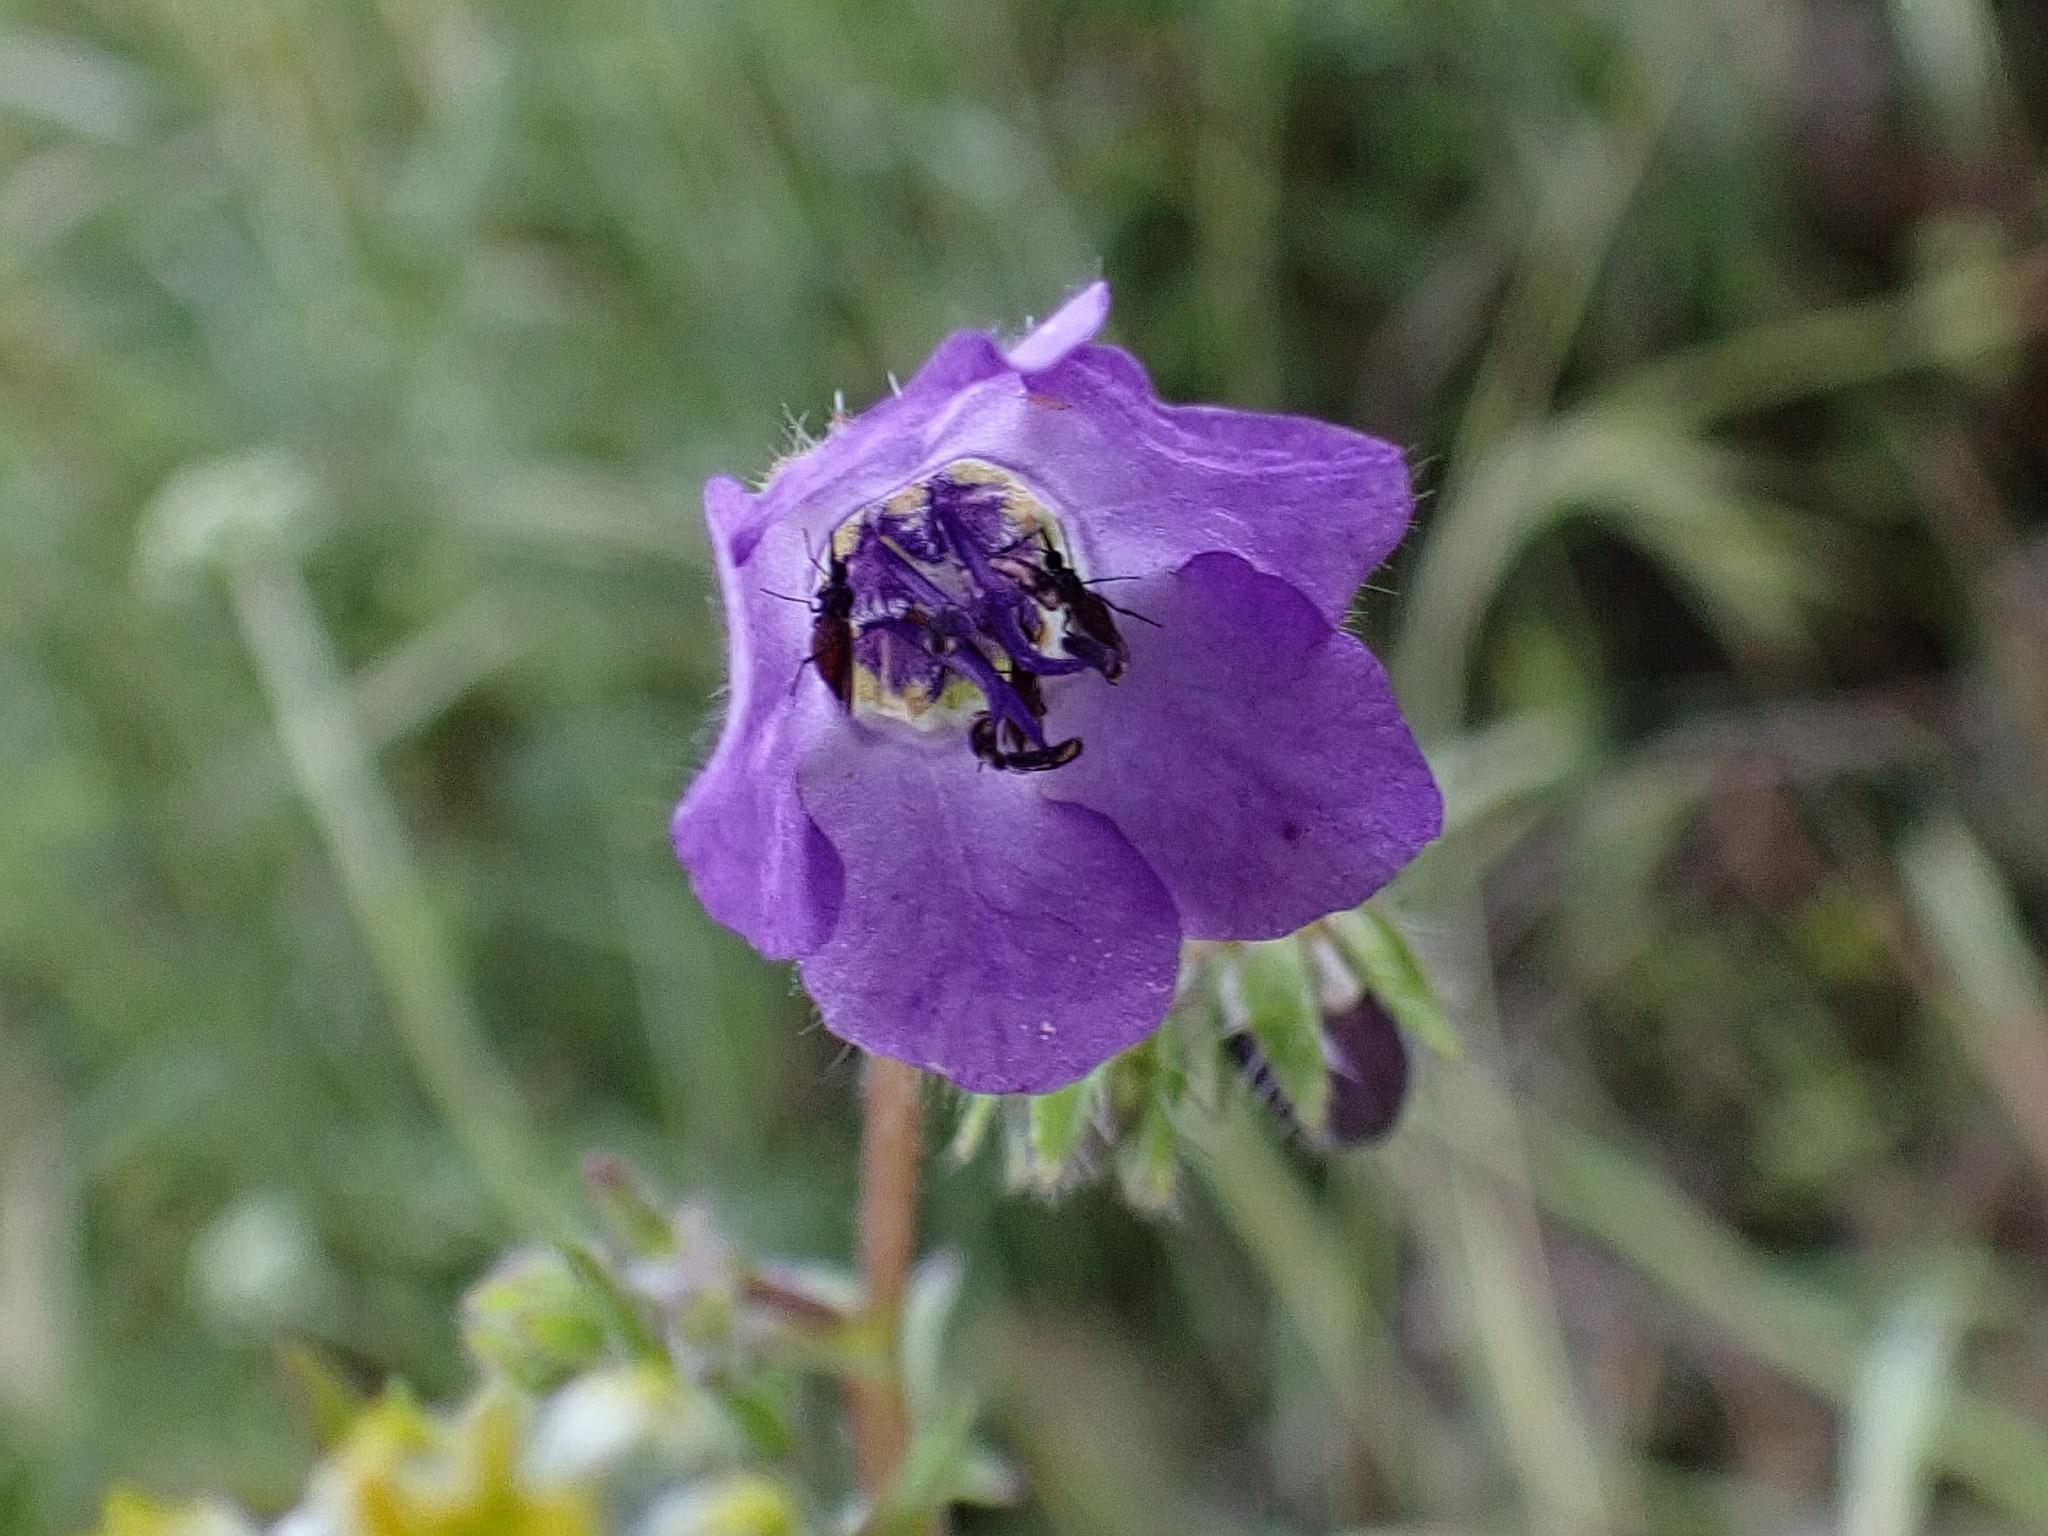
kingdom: Plantae
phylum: Tracheophyta
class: Magnoliopsida
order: Boraginales
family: Hydrophyllaceae
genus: Pholistoma
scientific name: Pholistoma auritum
